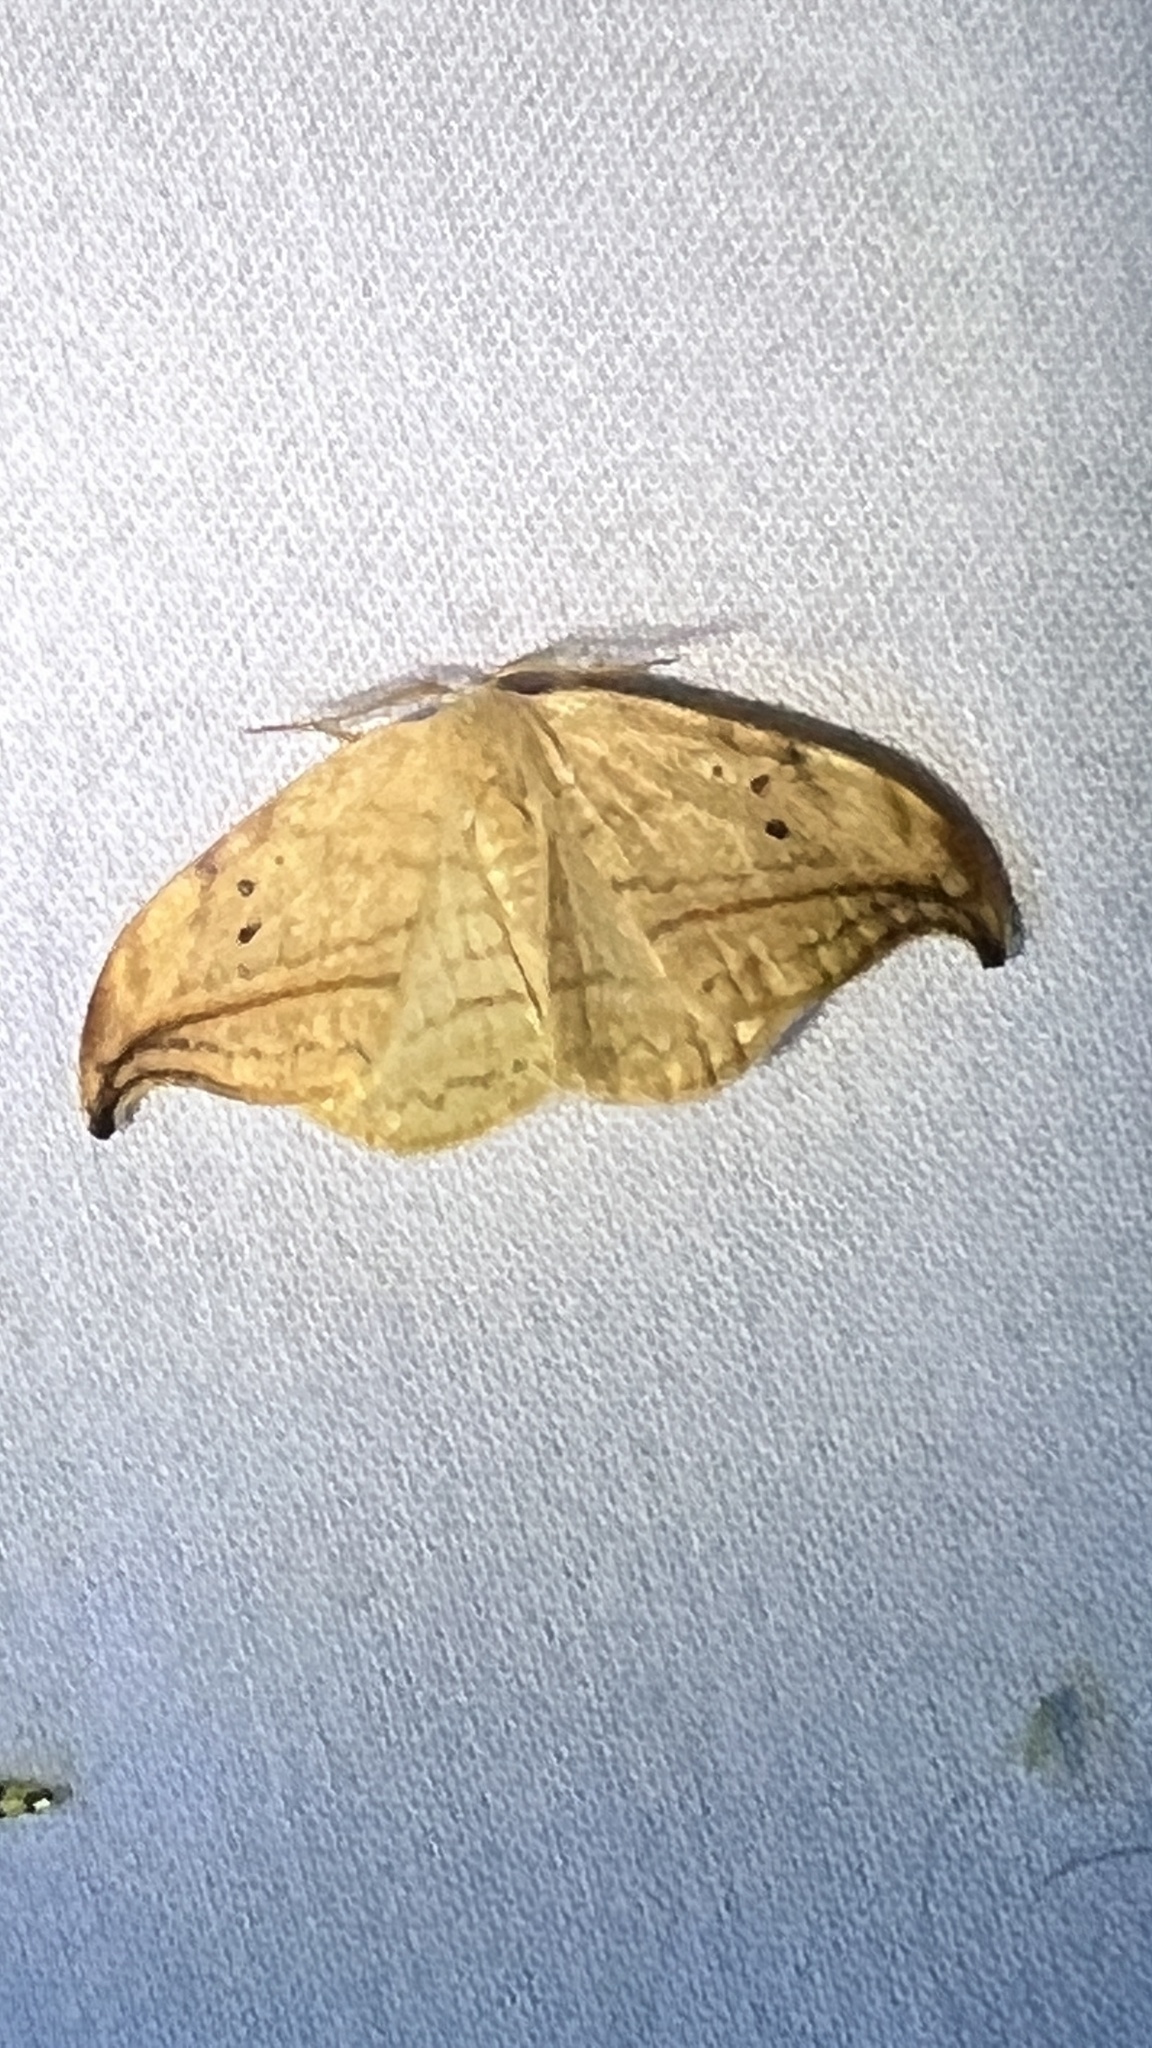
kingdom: Animalia
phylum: Arthropoda
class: Insecta
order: Lepidoptera
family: Drepanidae
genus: Drepana
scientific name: Drepana arcuata
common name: Arched hooktip moth
